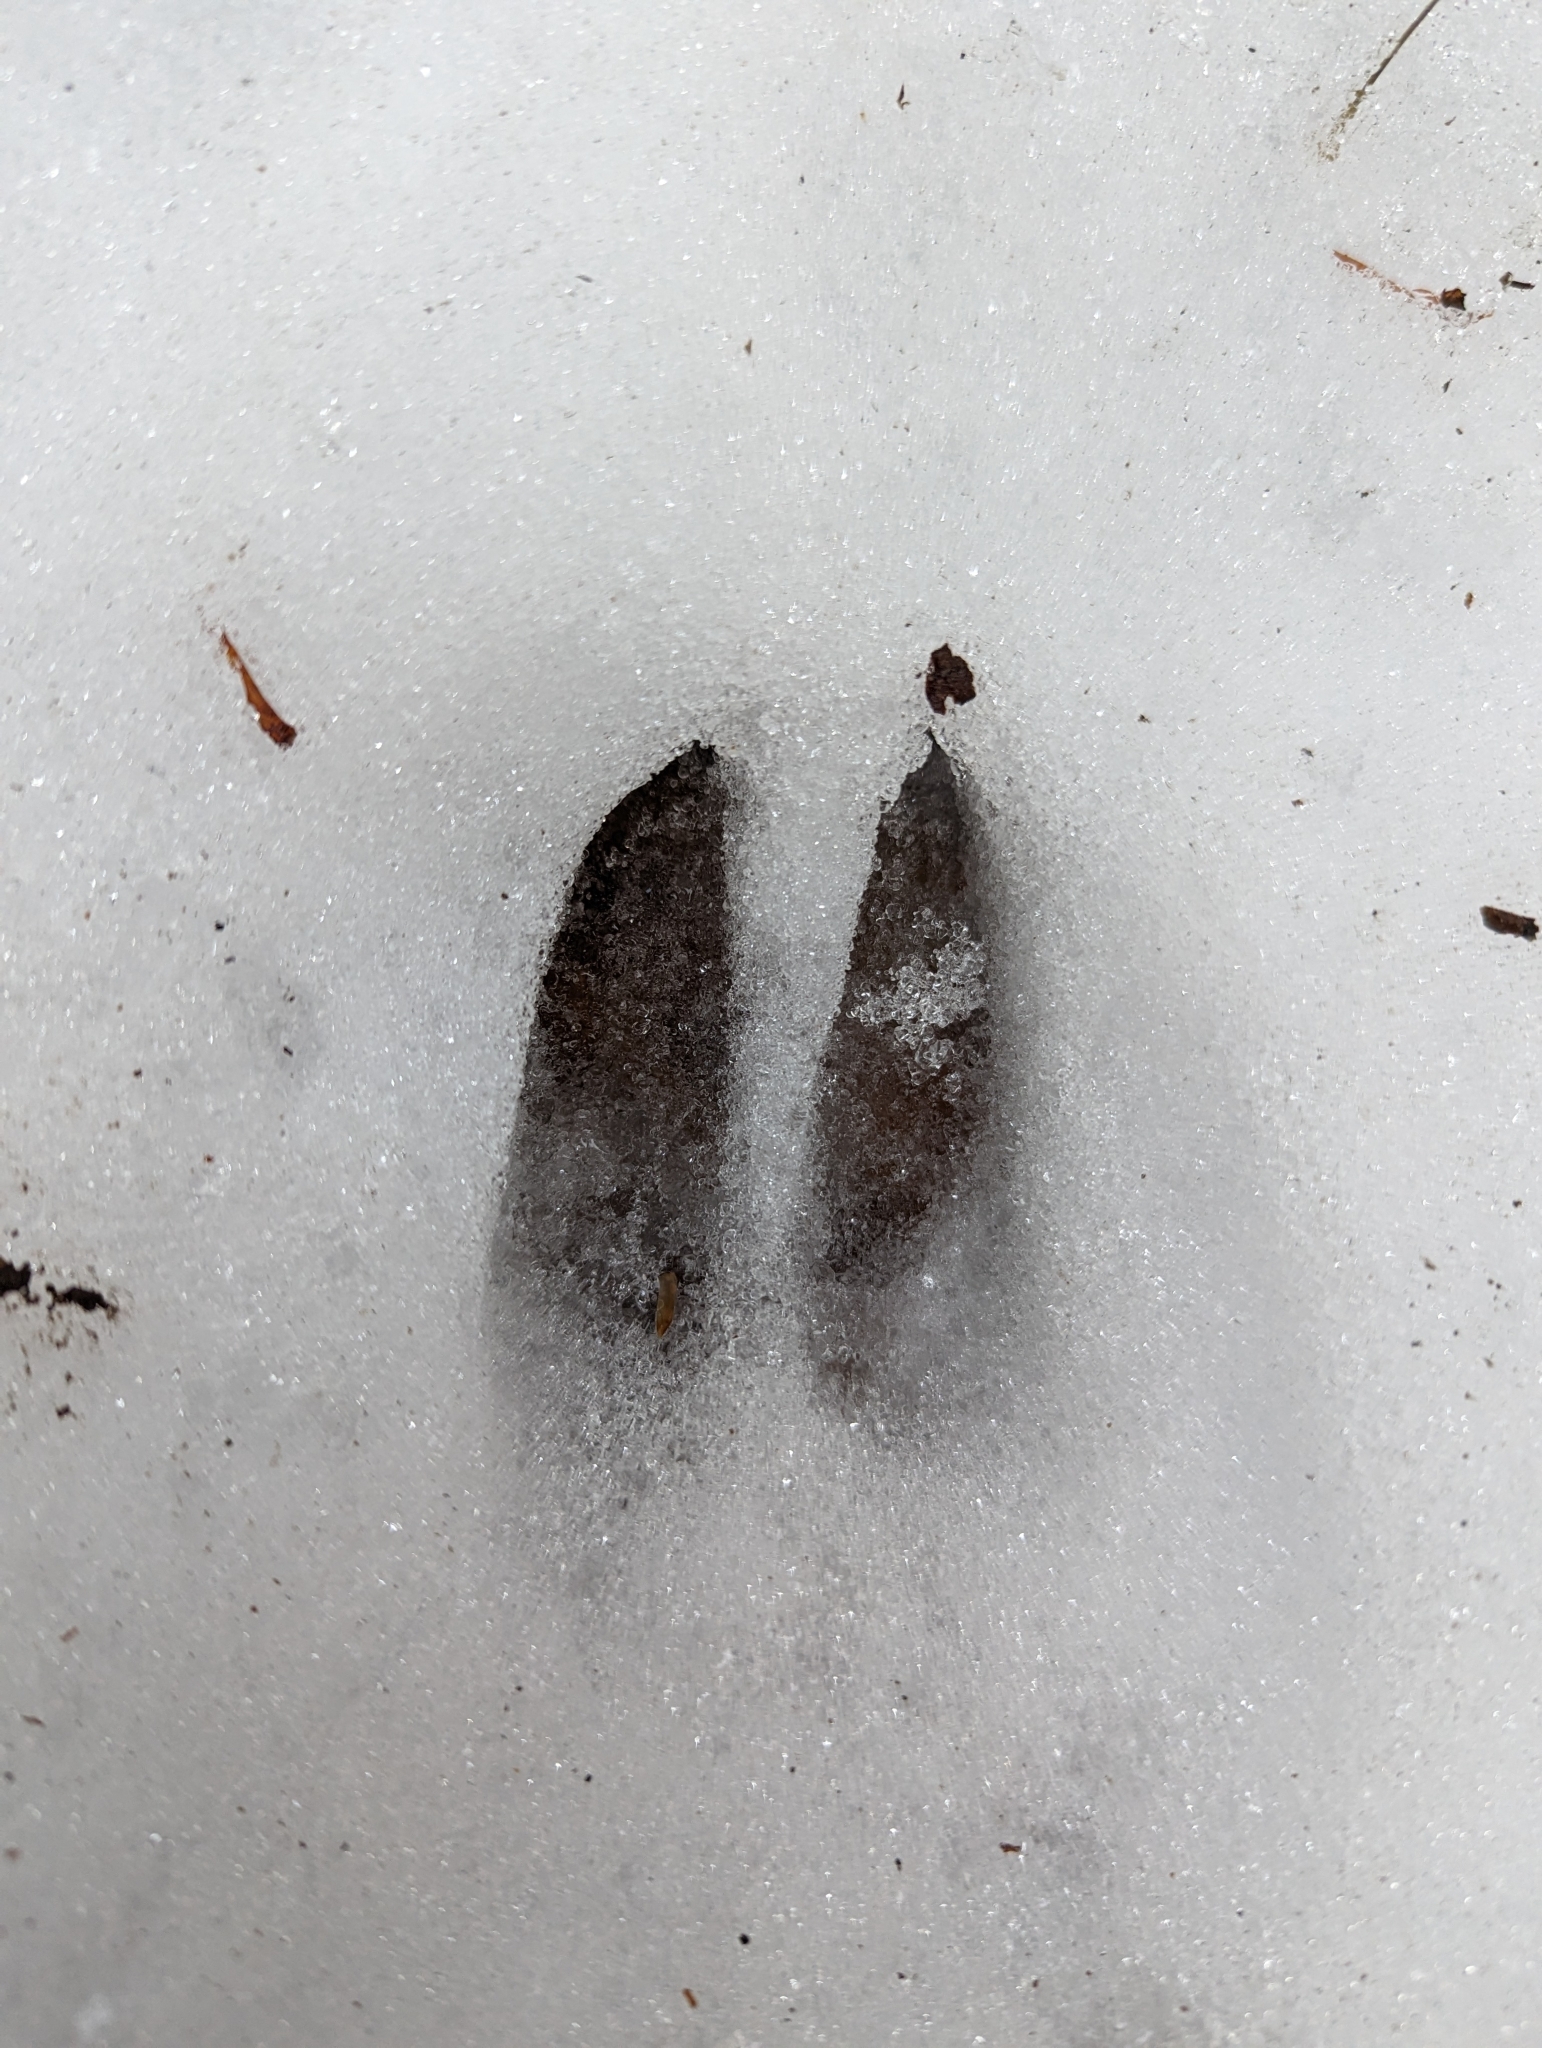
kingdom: Animalia
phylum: Chordata
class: Mammalia
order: Artiodactyla
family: Cervidae
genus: Odocoileus
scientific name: Odocoileus hemionus
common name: Mule deer
